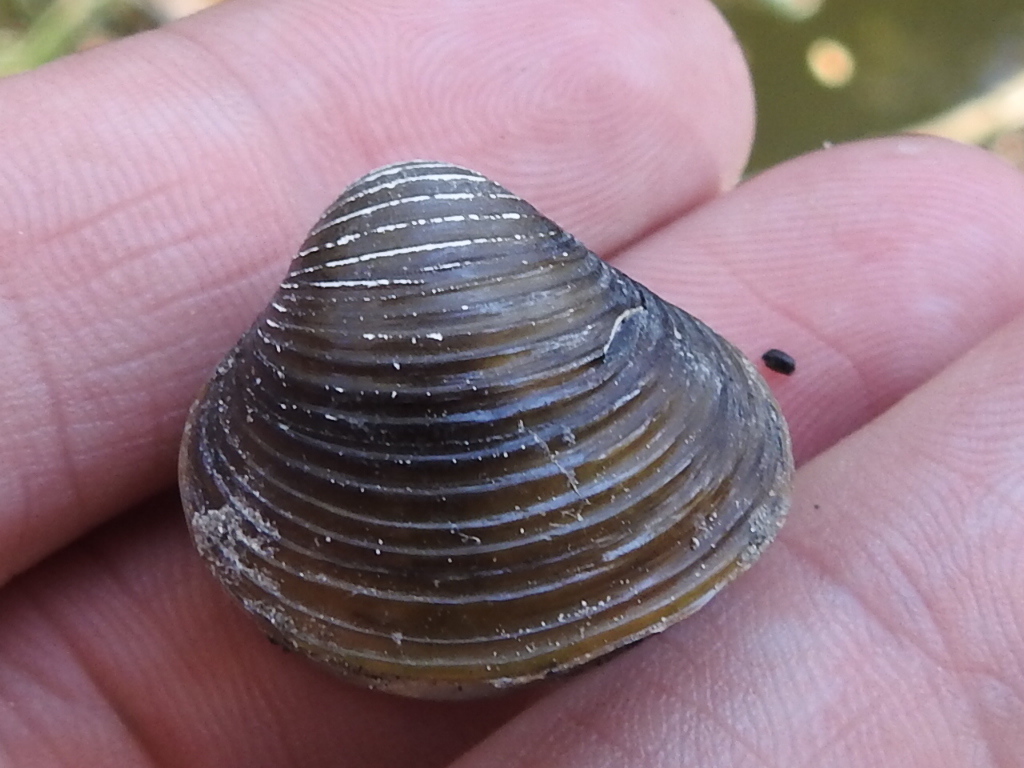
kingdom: Animalia
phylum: Mollusca
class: Bivalvia
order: Venerida
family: Cyrenidae
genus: Corbicula
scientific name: Corbicula fluminea
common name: Asian clam
